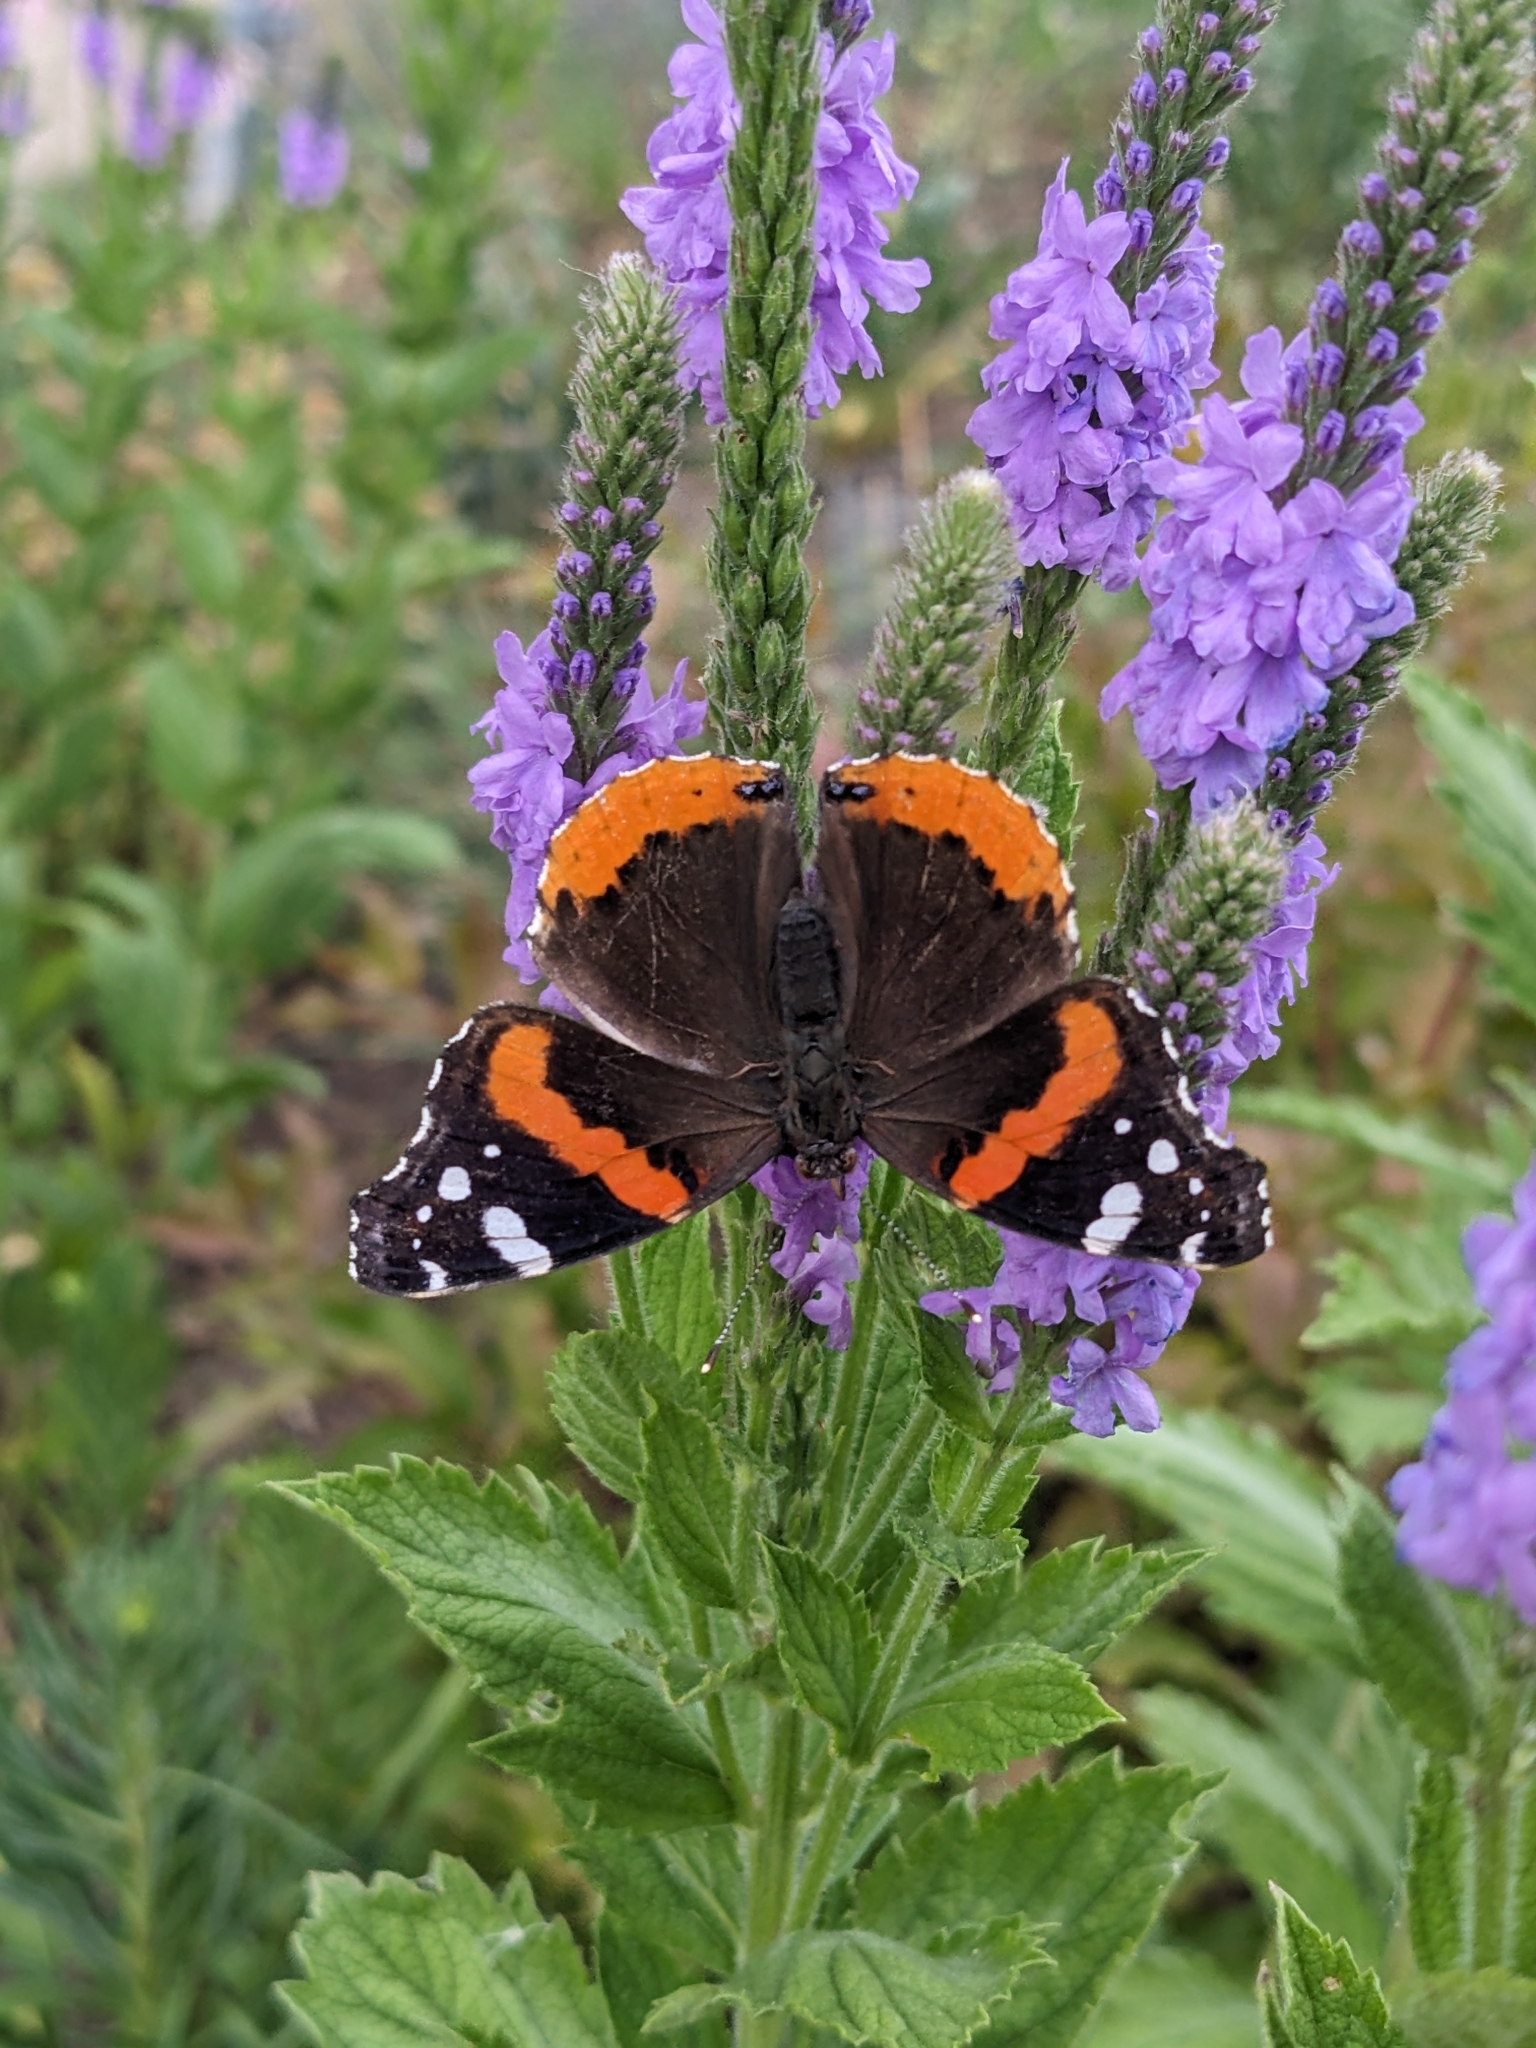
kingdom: Animalia
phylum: Arthropoda
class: Insecta
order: Lepidoptera
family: Nymphalidae
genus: Vanessa
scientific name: Vanessa atalanta
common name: Red admiral
